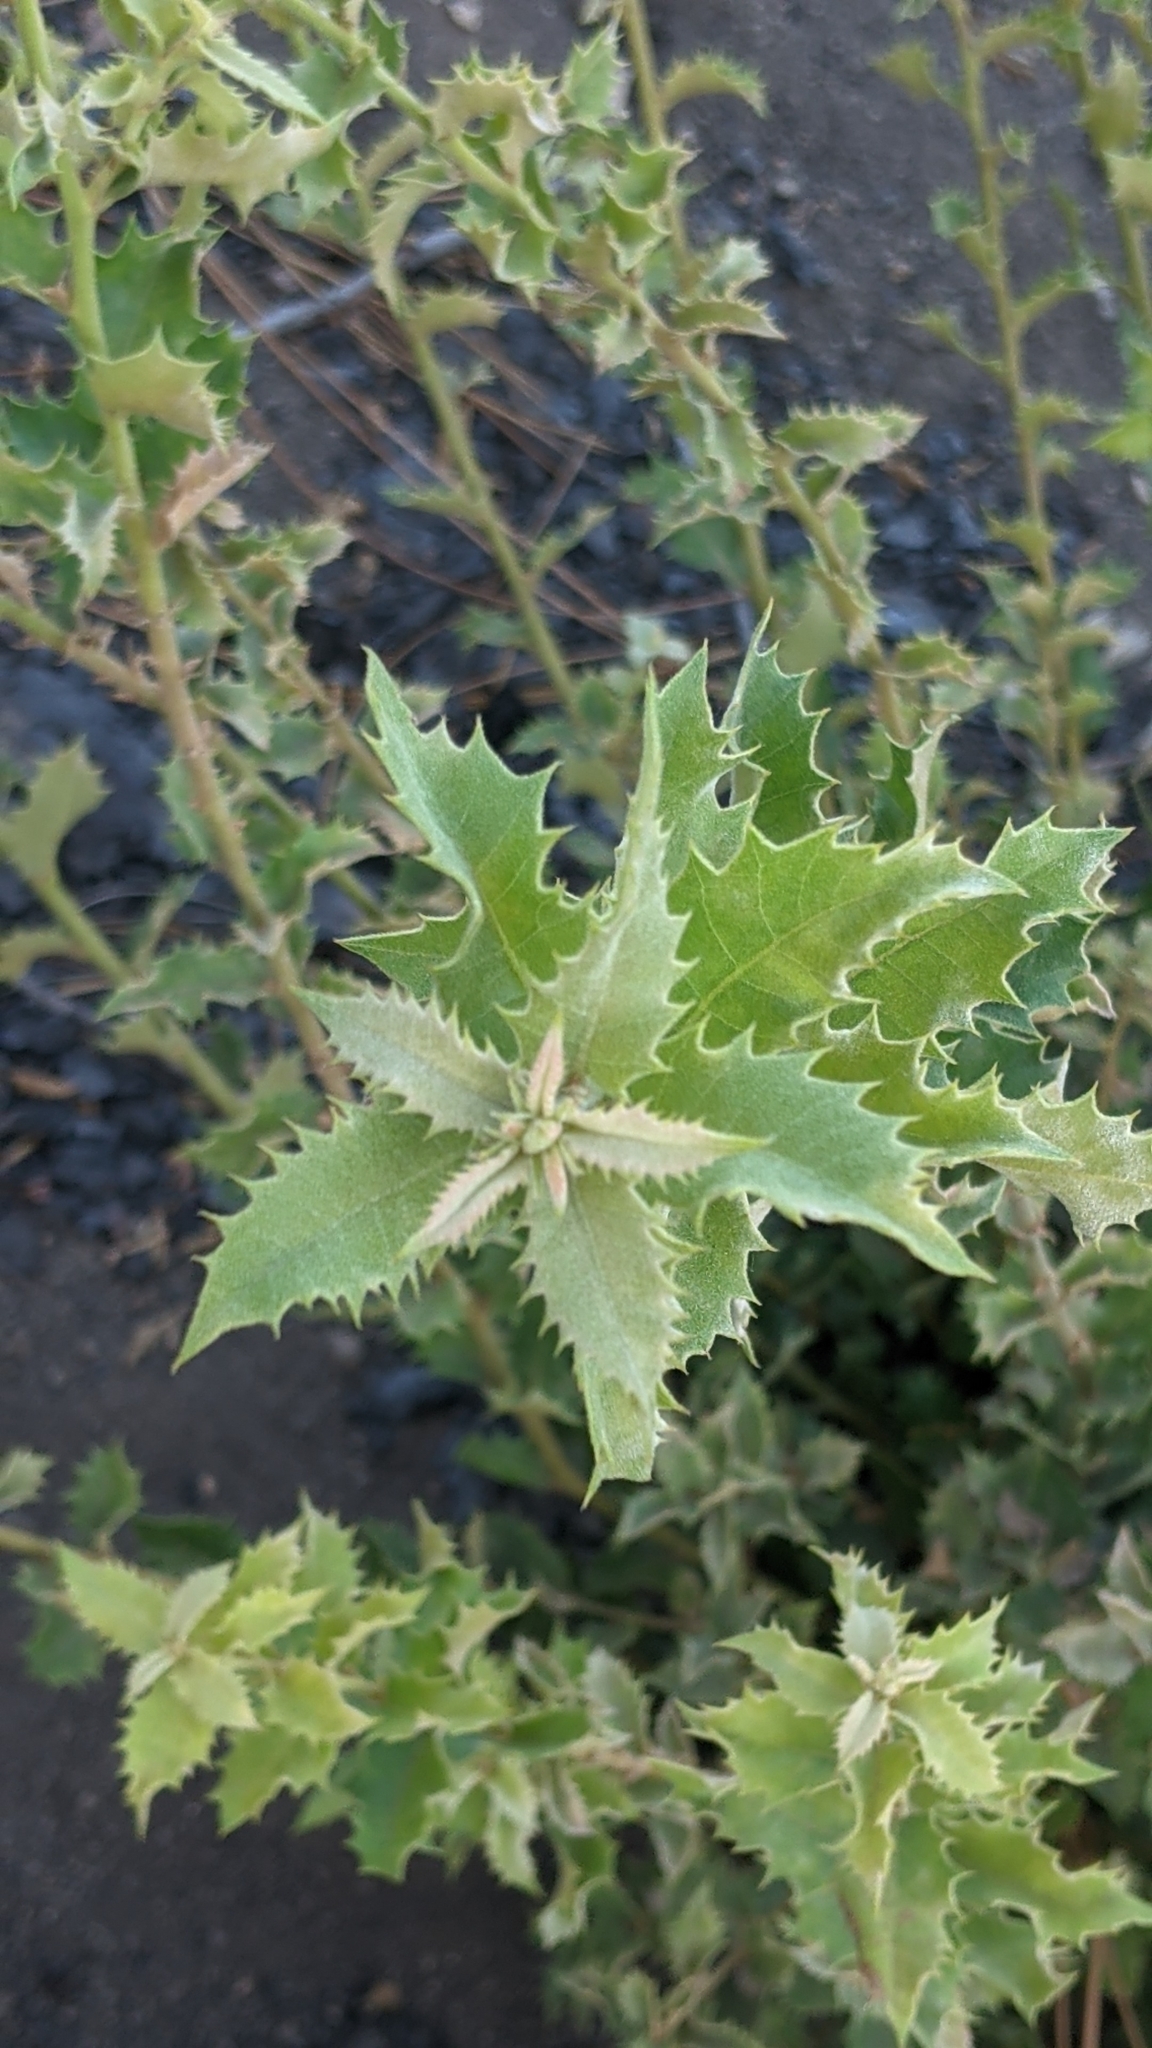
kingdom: Plantae
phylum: Tracheophyta
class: Magnoliopsida
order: Fagales
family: Fagaceae
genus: Quercus
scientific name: Quercus chrysolepis
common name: Canyon live oak
